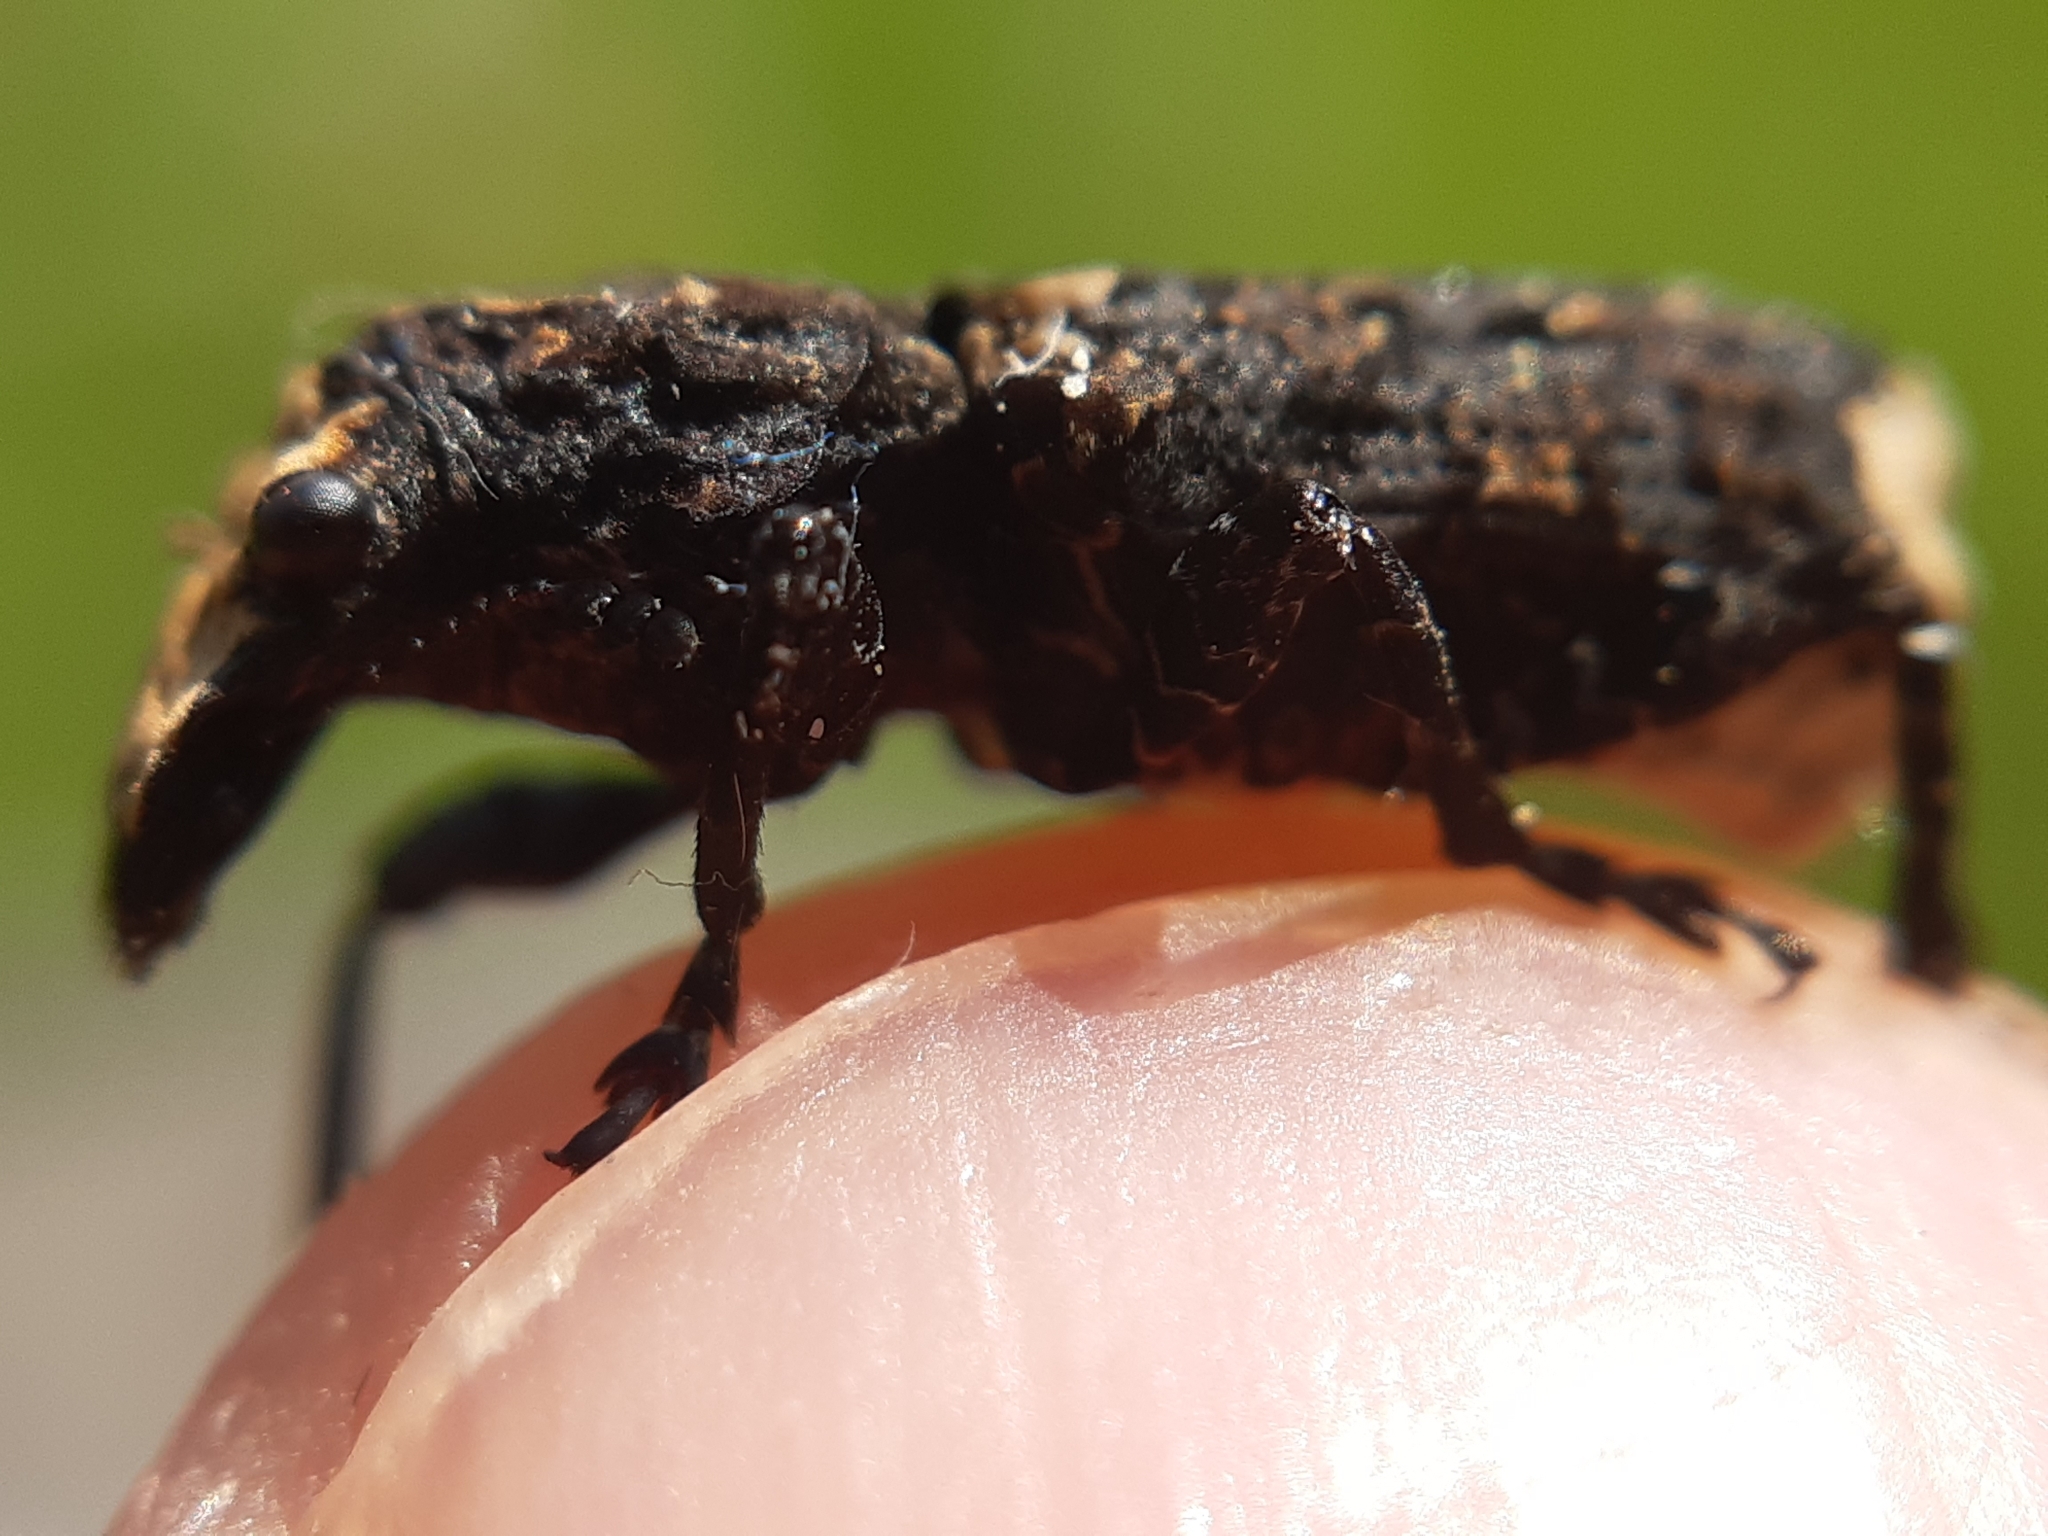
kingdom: Animalia
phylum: Arthropoda
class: Insecta
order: Coleoptera
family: Anthribidae
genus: Platyrhinus
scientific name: Platyrhinus resinosus
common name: Cramp-ball fungus weevil
